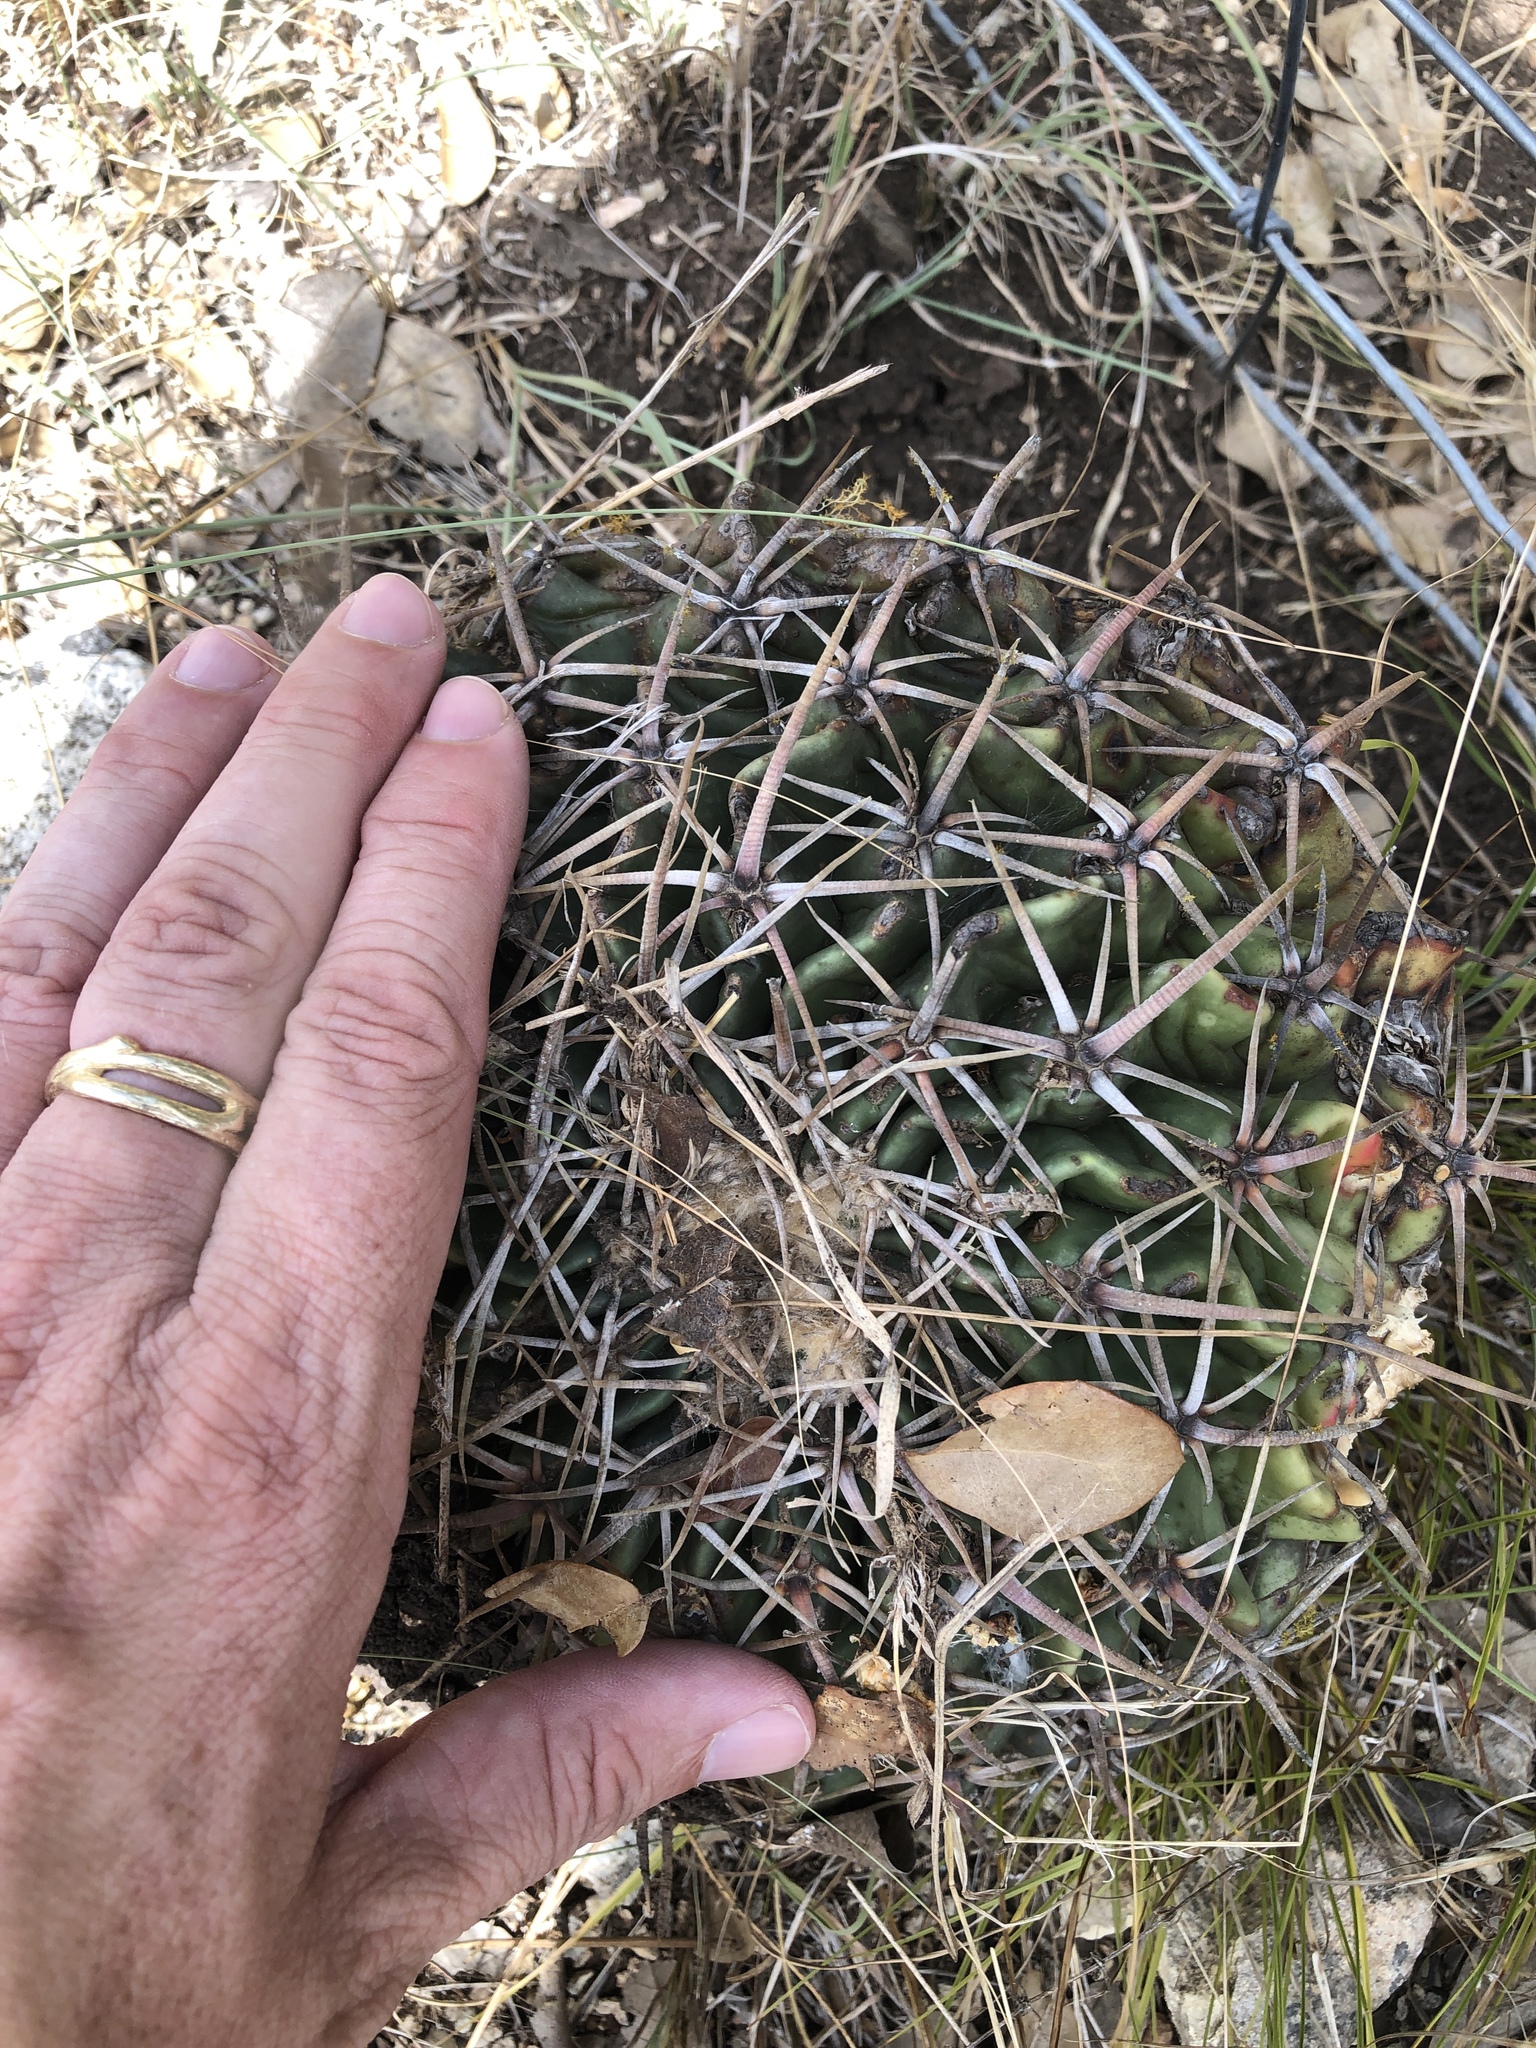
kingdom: Plantae
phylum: Tracheophyta
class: Magnoliopsida
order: Caryophyllales
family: Cactaceae
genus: Echinocactus
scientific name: Echinocactus texensis
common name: Devil's pincushion
